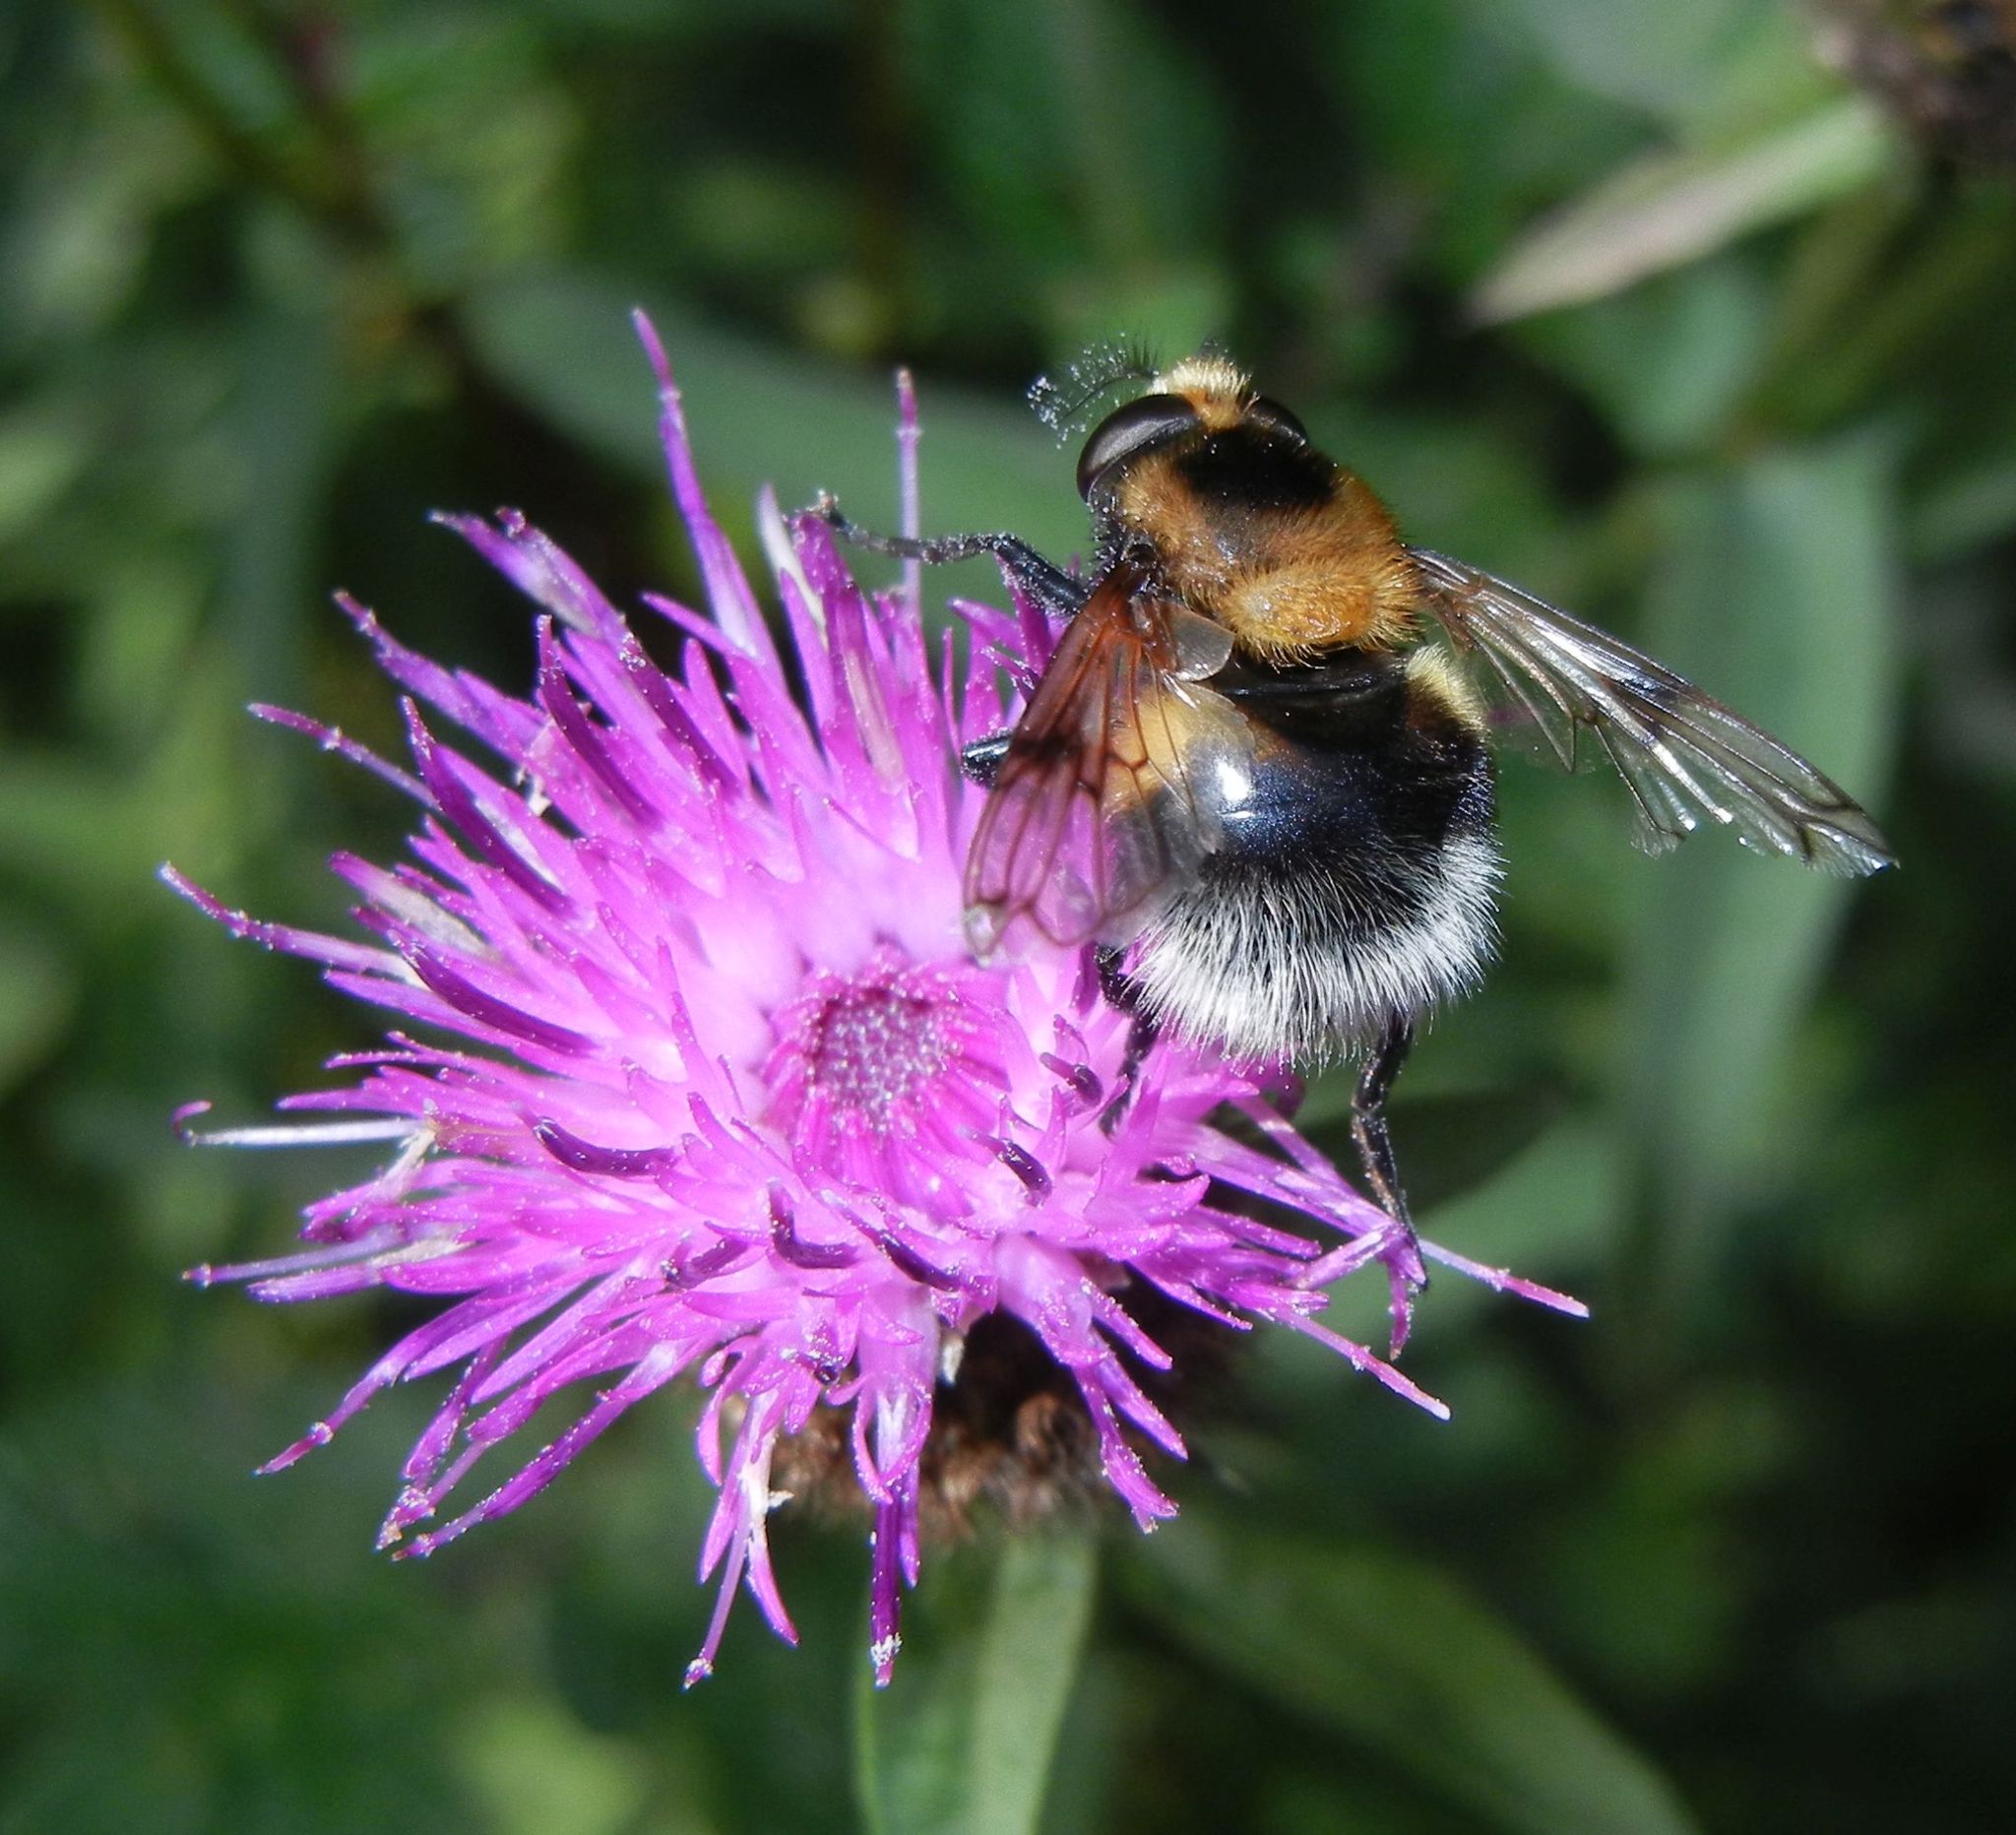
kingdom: Animalia
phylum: Arthropoda
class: Insecta
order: Diptera
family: Syrphidae
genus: Volucella
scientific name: Volucella bombylans
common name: Bumble bee hover fly
